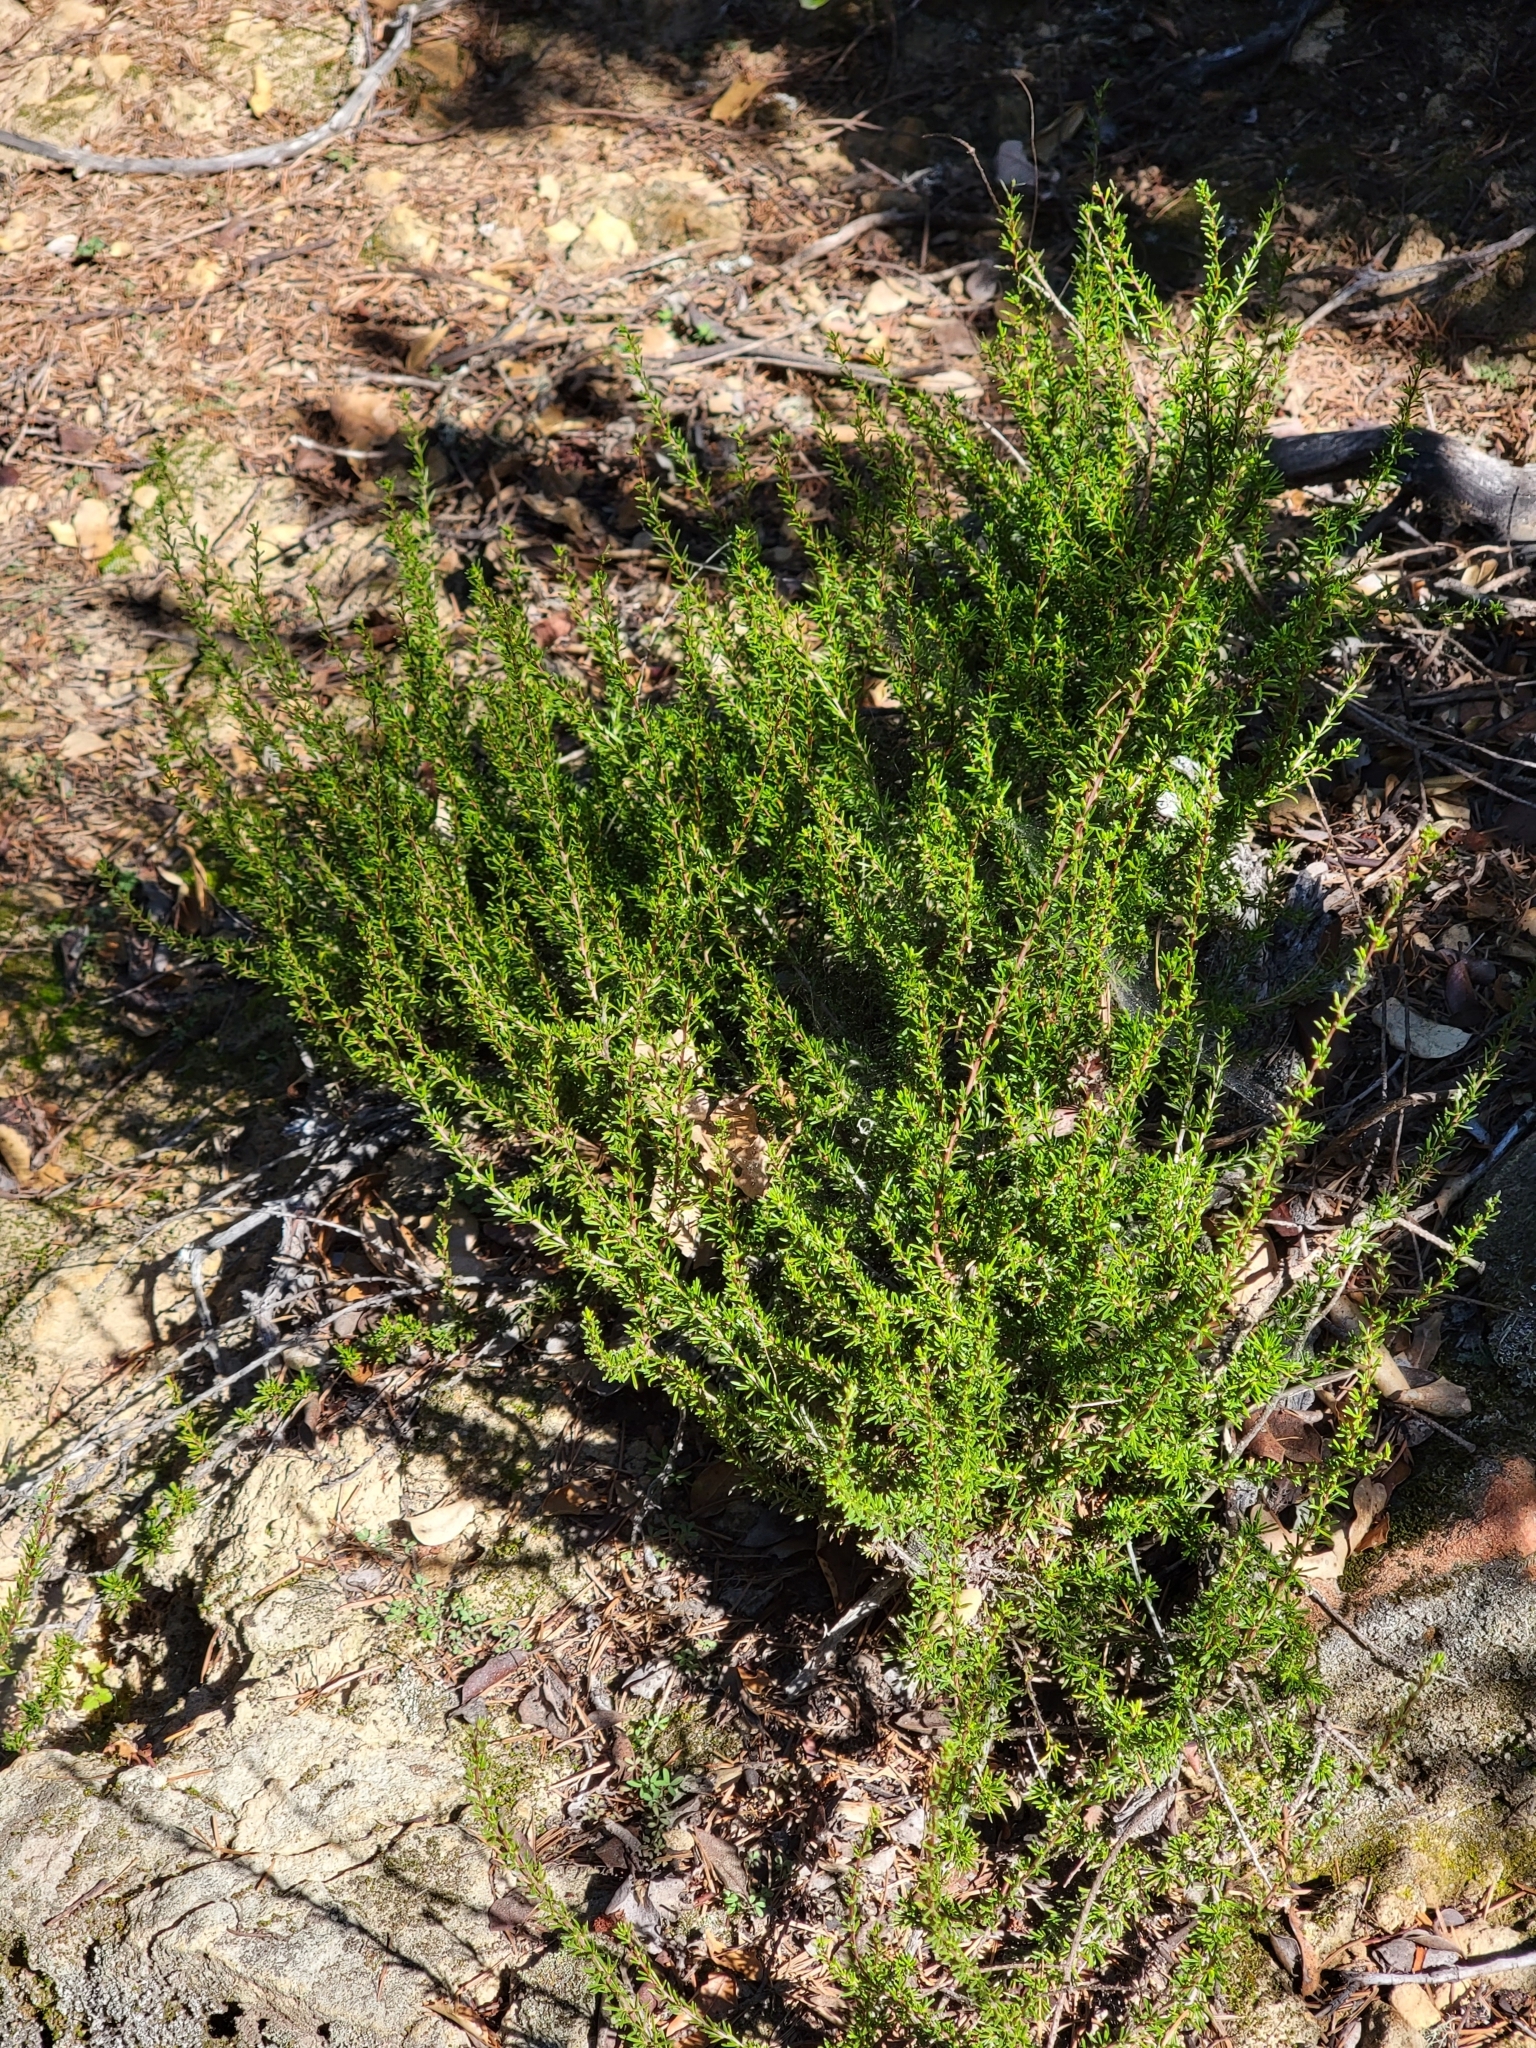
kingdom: Plantae
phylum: Tracheophyta
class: Magnoliopsida
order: Rosales
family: Rosaceae
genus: Adenostoma
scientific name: Adenostoma fasciculatum
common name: Chamise
